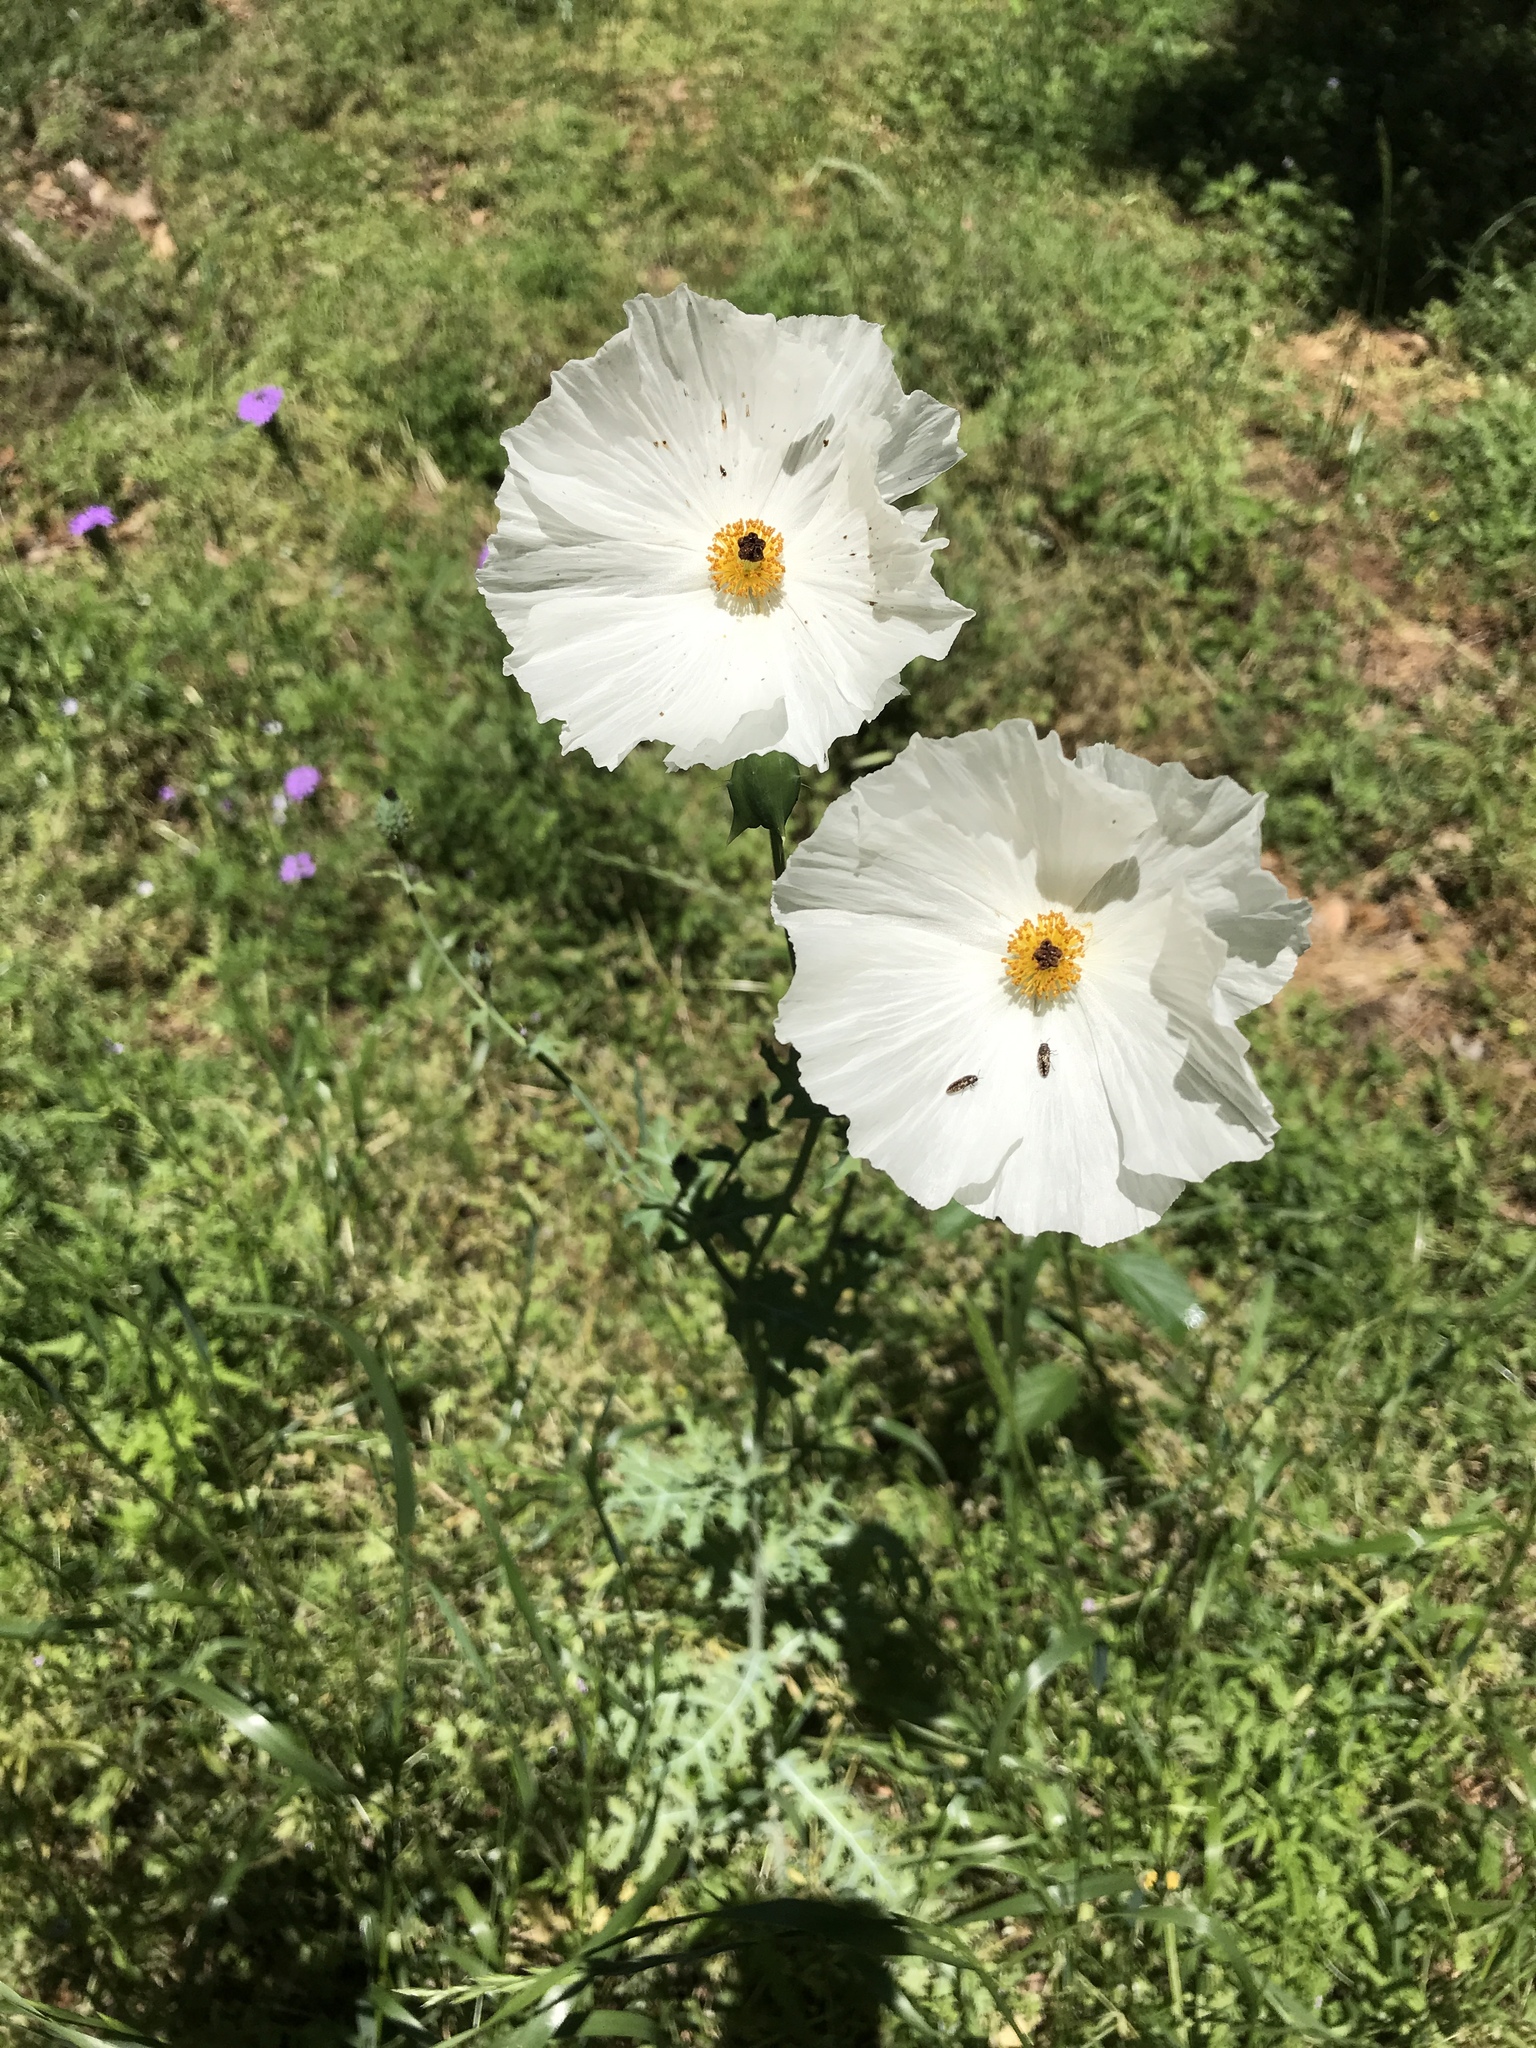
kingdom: Plantae
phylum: Tracheophyta
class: Magnoliopsida
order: Ranunculales
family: Papaveraceae
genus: Argemone
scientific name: Argemone albiflora
